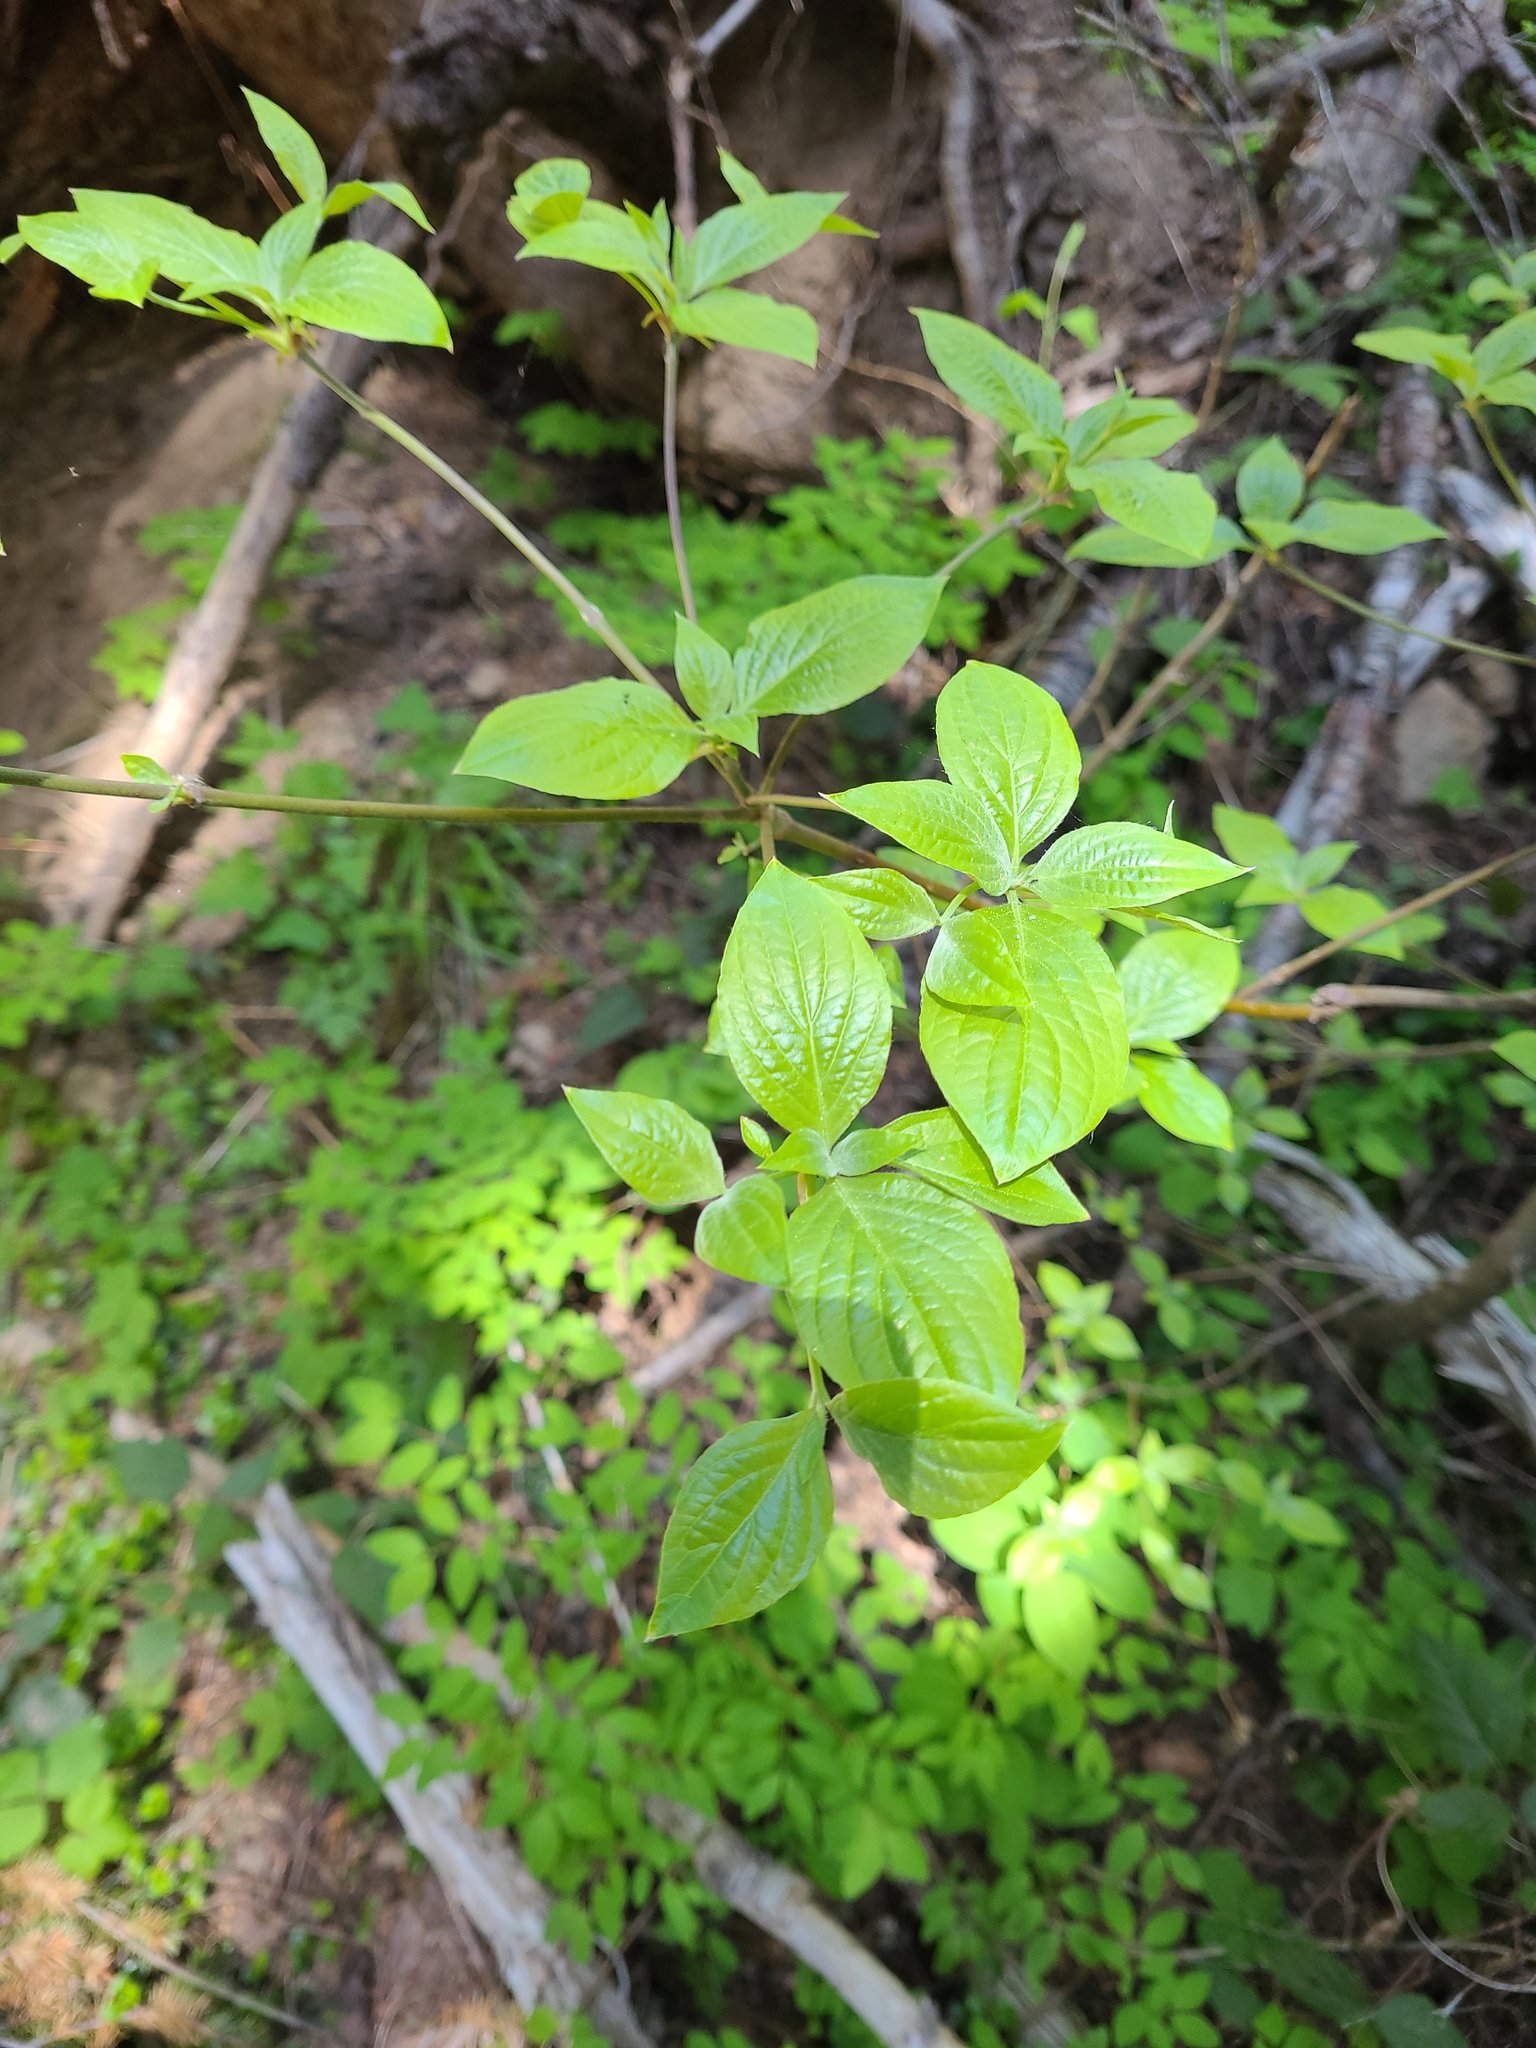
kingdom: Plantae
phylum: Tracheophyta
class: Magnoliopsida
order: Cornales
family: Cornaceae
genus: Cornus
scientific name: Cornus nuttallii
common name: Pacific dogwood
